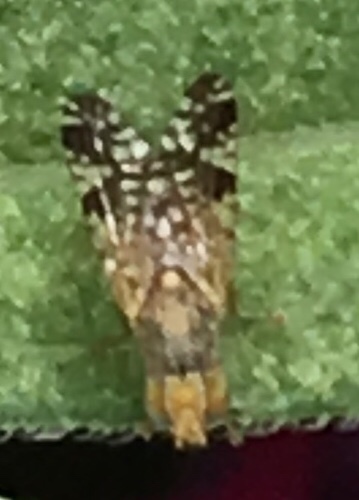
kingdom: Animalia
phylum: Arthropoda
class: Insecta
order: Diptera
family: Tephritidae
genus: Neotephritis
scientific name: Neotephritis finalis
